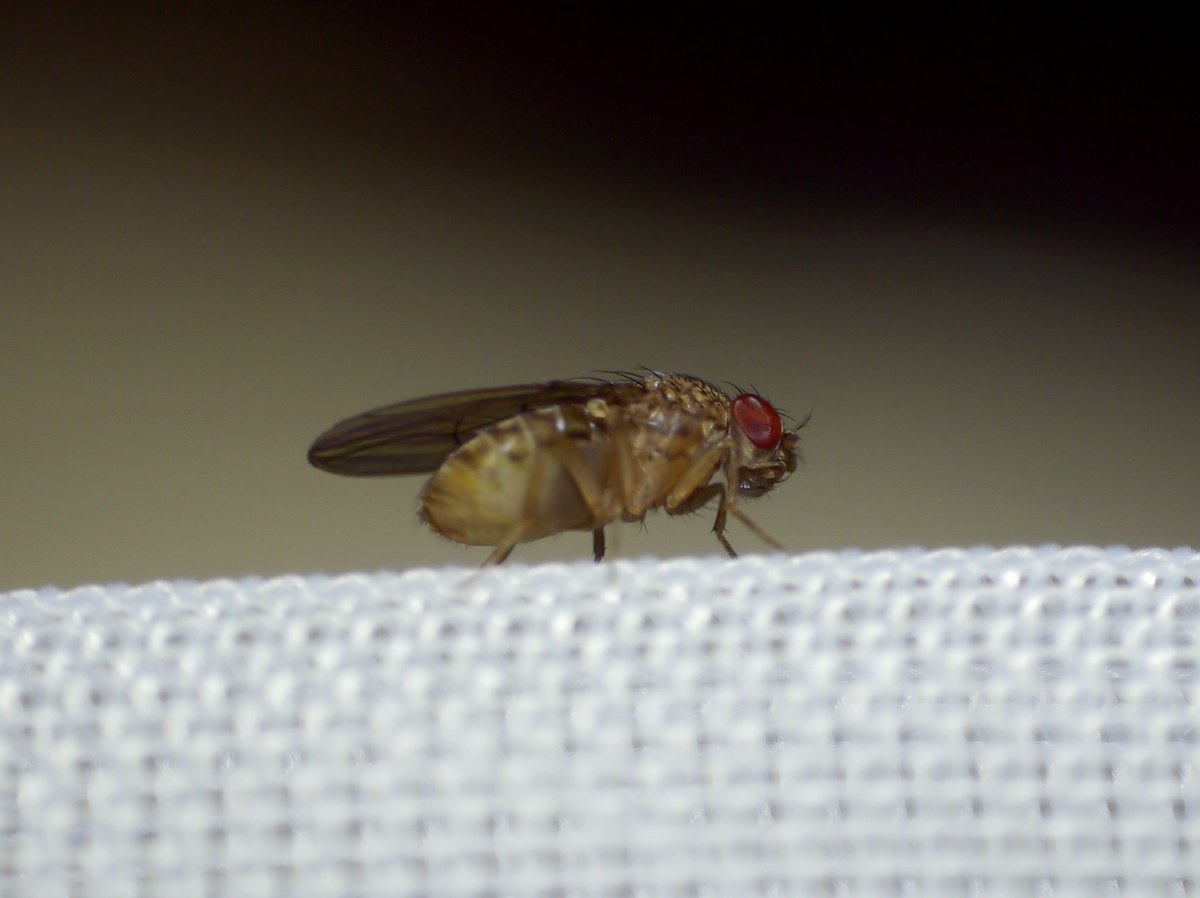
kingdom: Animalia
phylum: Arthropoda
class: Insecta
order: Diptera
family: Drosophilidae
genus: Drosophila
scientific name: Drosophila repleta
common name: Pomace fly
